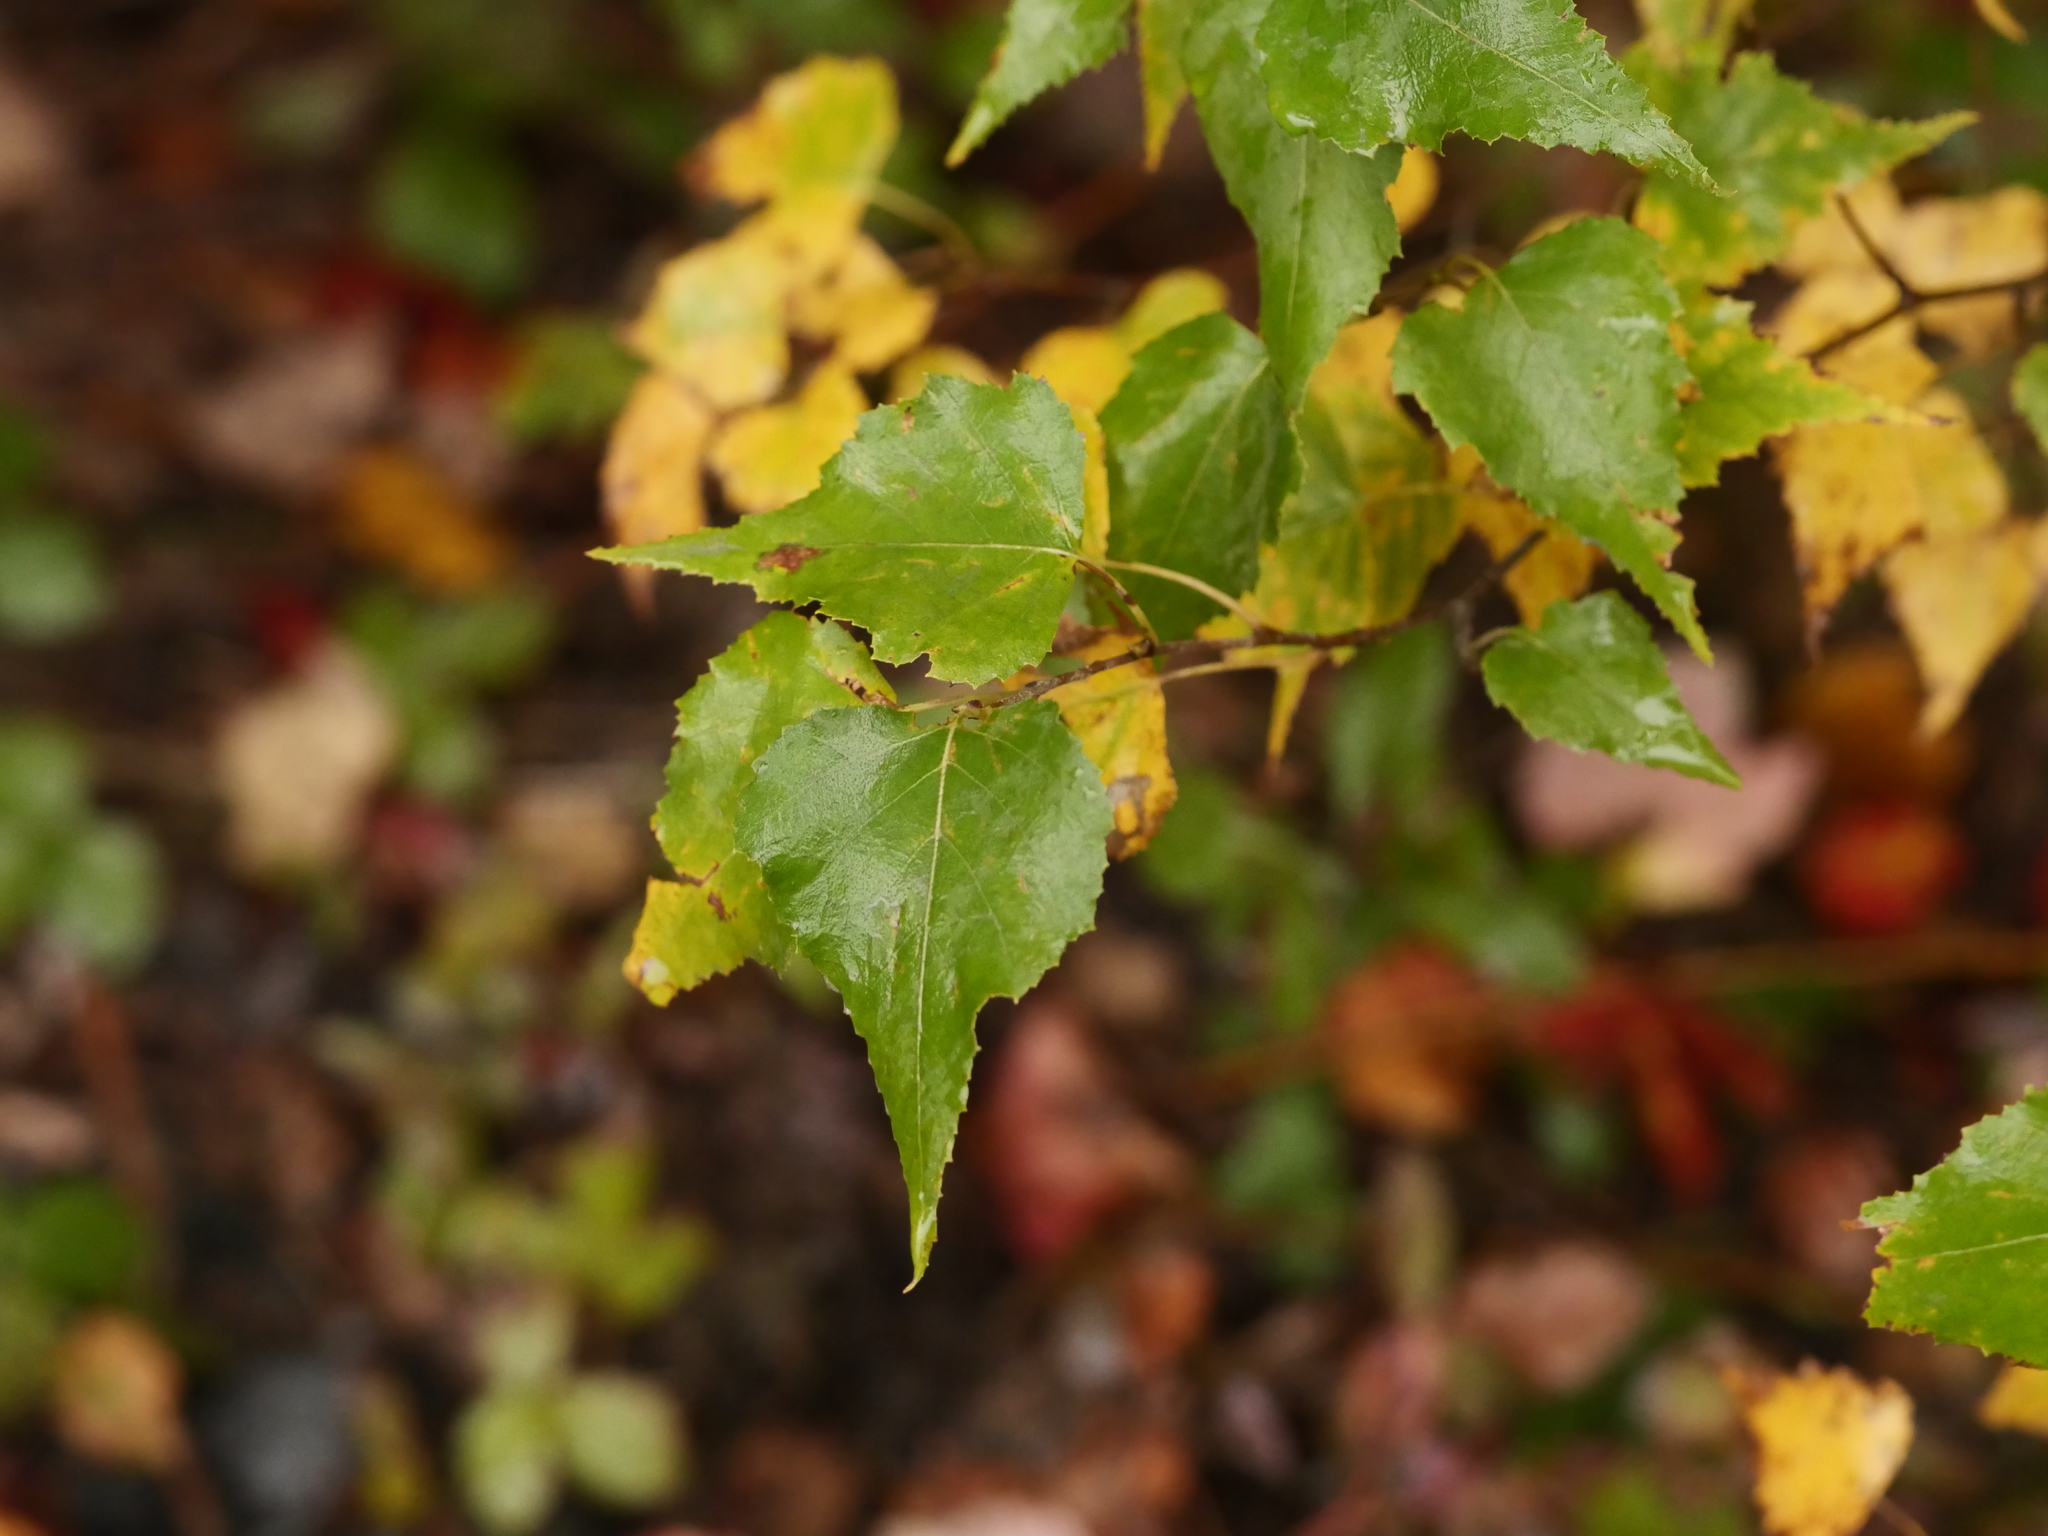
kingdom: Plantae
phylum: Tracheophyta
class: Magnoliopsida
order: Fagales
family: Betulaceae
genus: Betula
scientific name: Betula populifolia
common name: Fire birch
